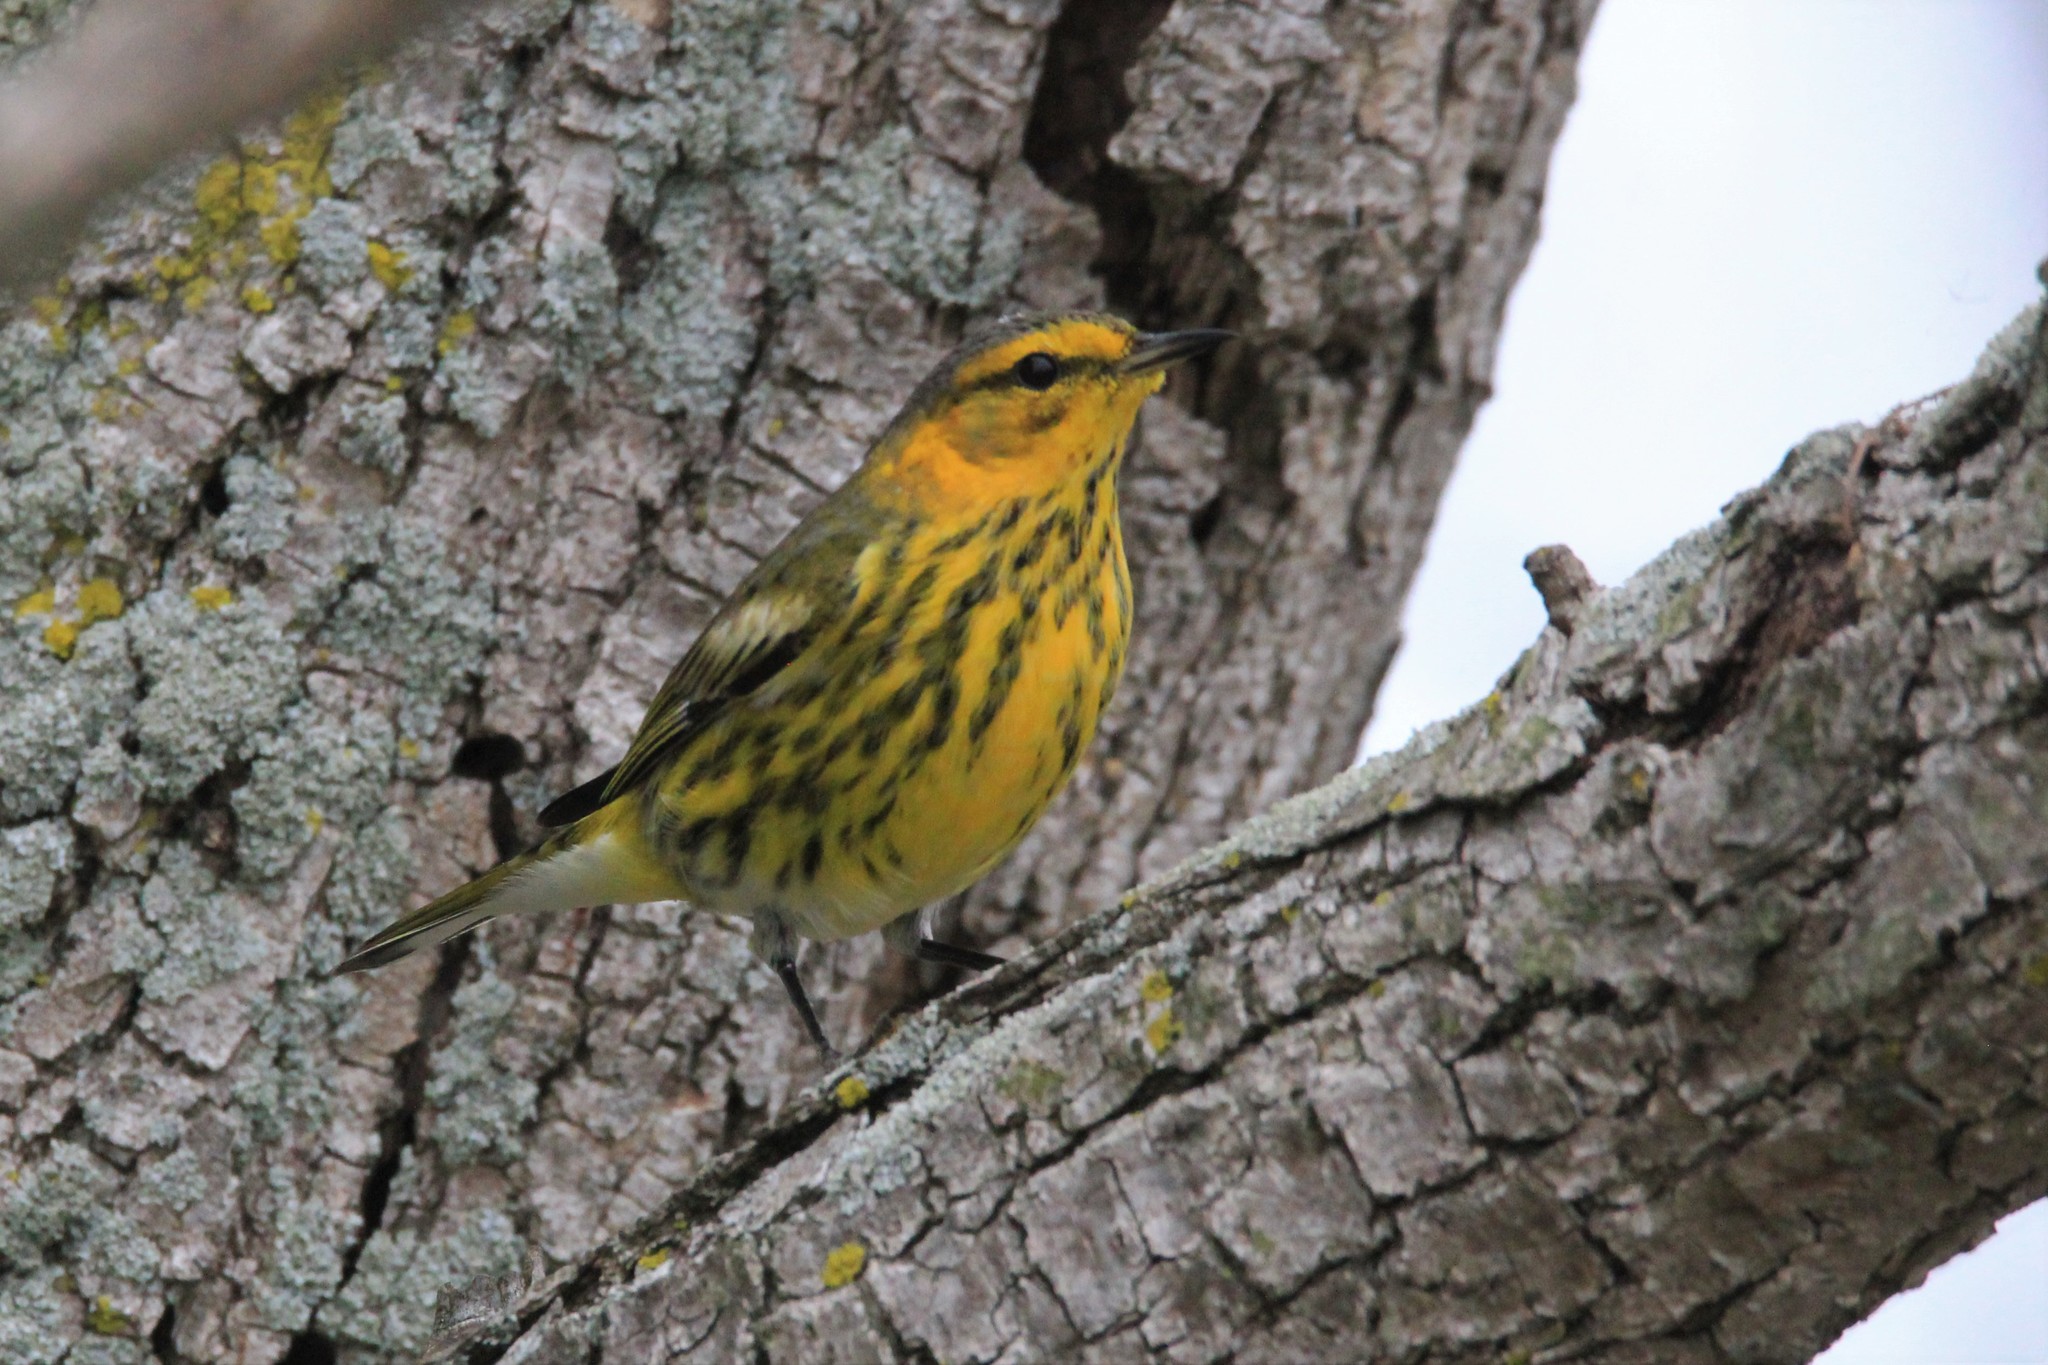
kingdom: Animalia
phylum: Chordata
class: Aves
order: Passeriformes
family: Parulidae
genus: Setophaga
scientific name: Setophaga tigrina
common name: Cape may warbler
